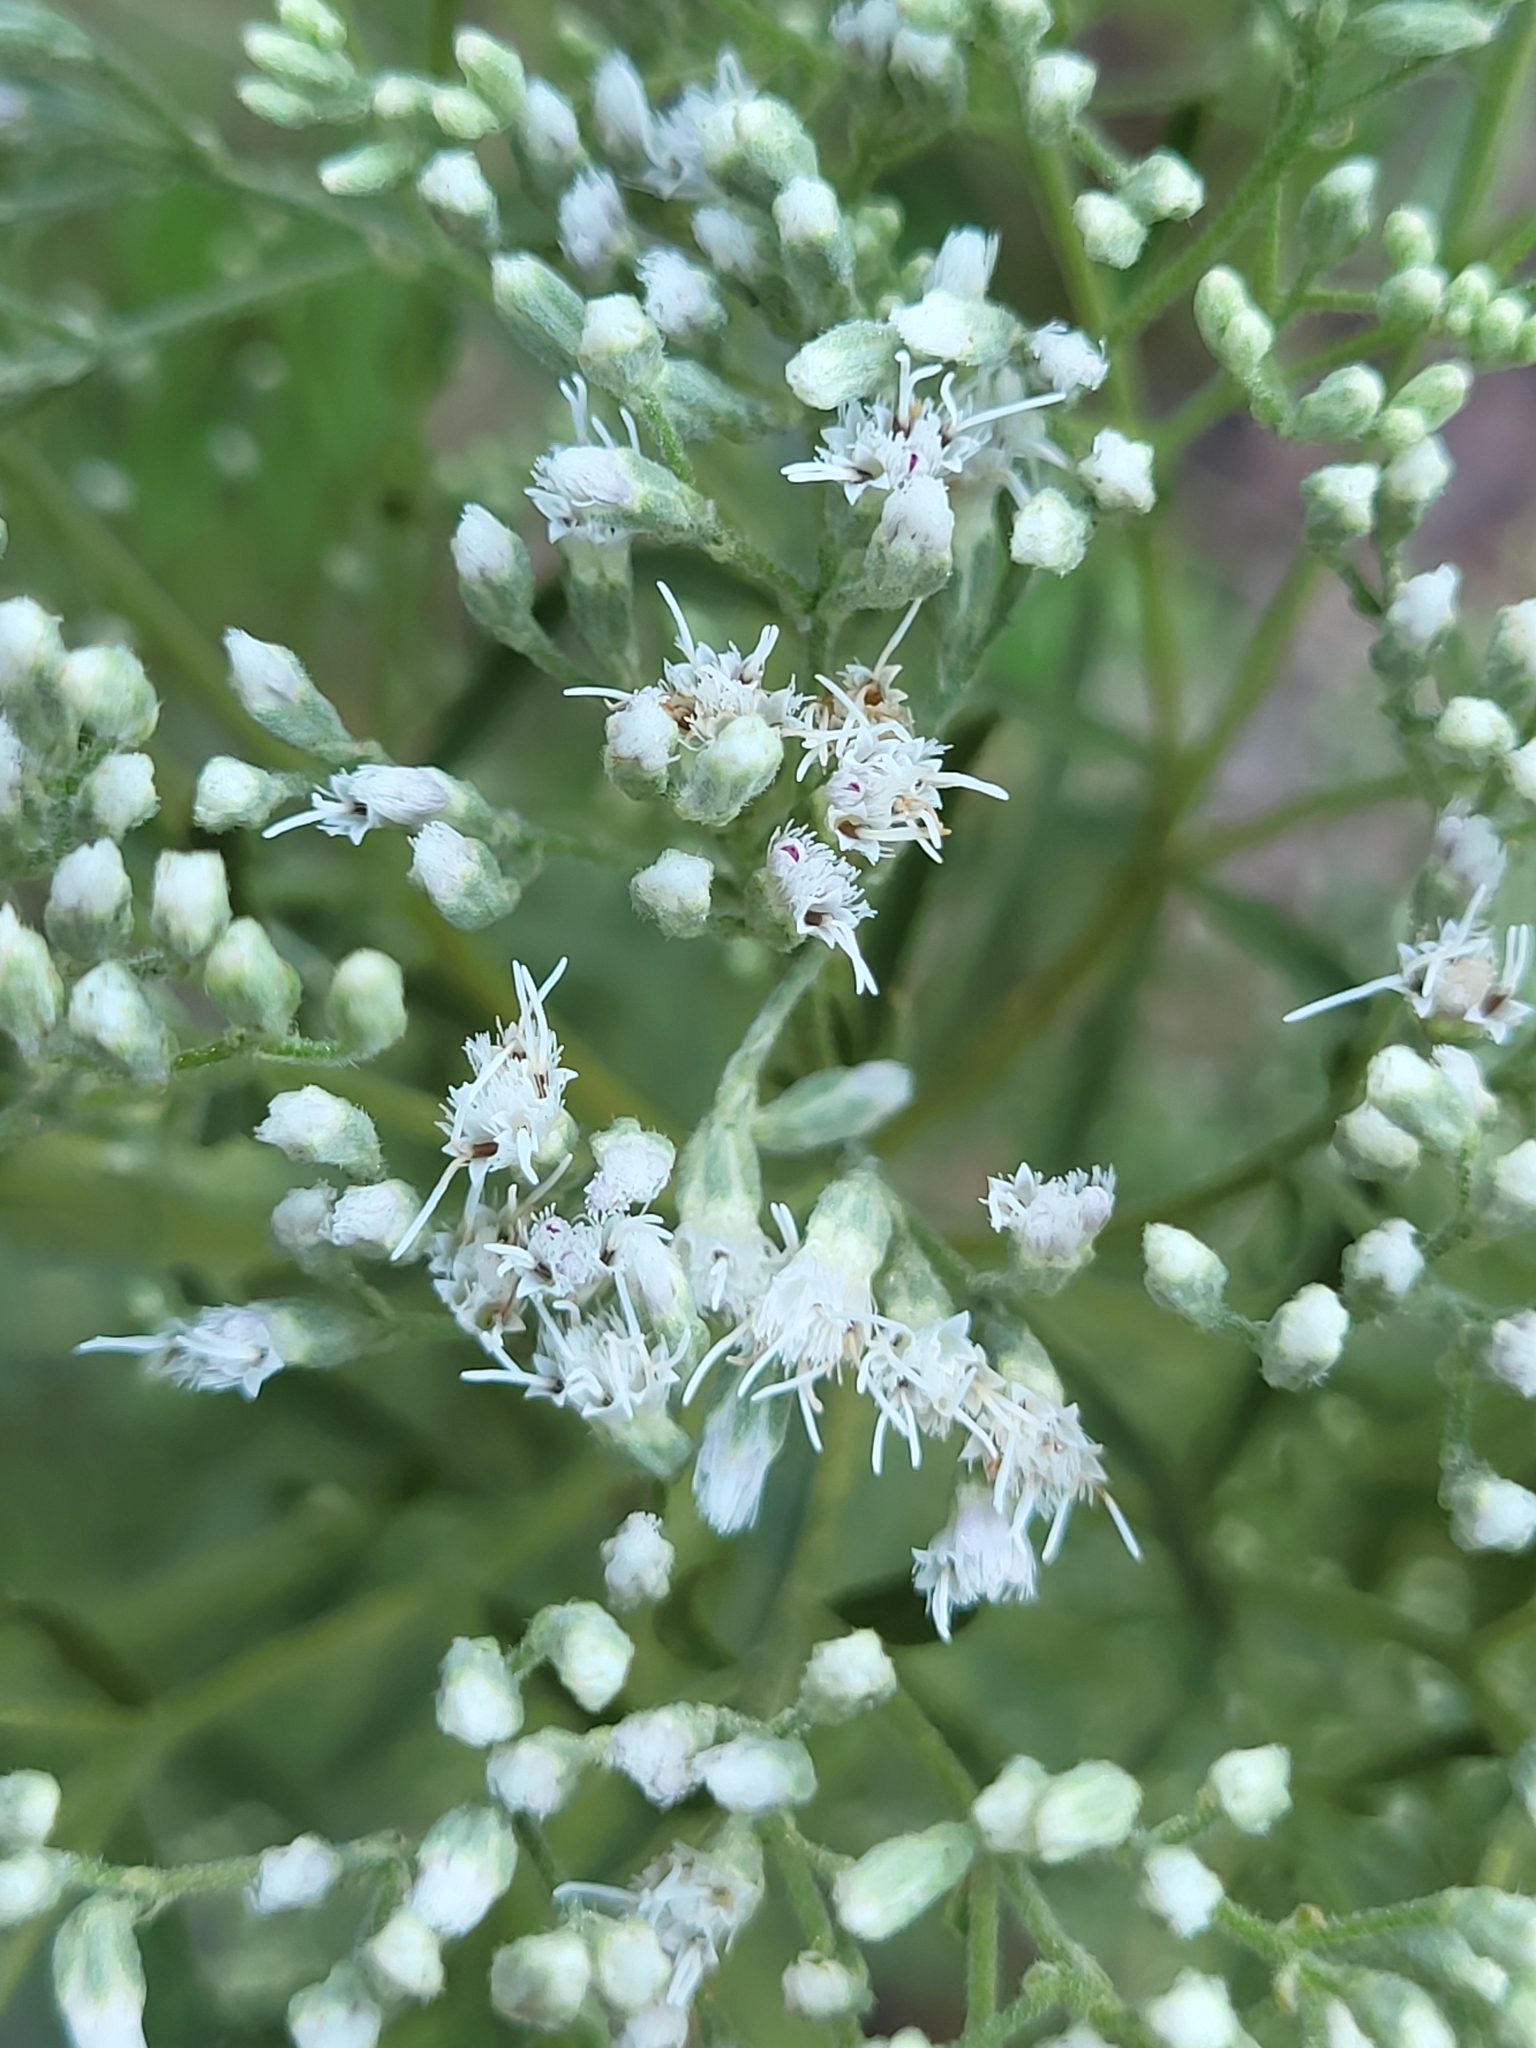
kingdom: Plantae
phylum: Tracheophyta
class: Magnoliopsida
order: Asterales
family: Asteraceae
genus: Eupatorium
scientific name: Eupatorium torreyanum
